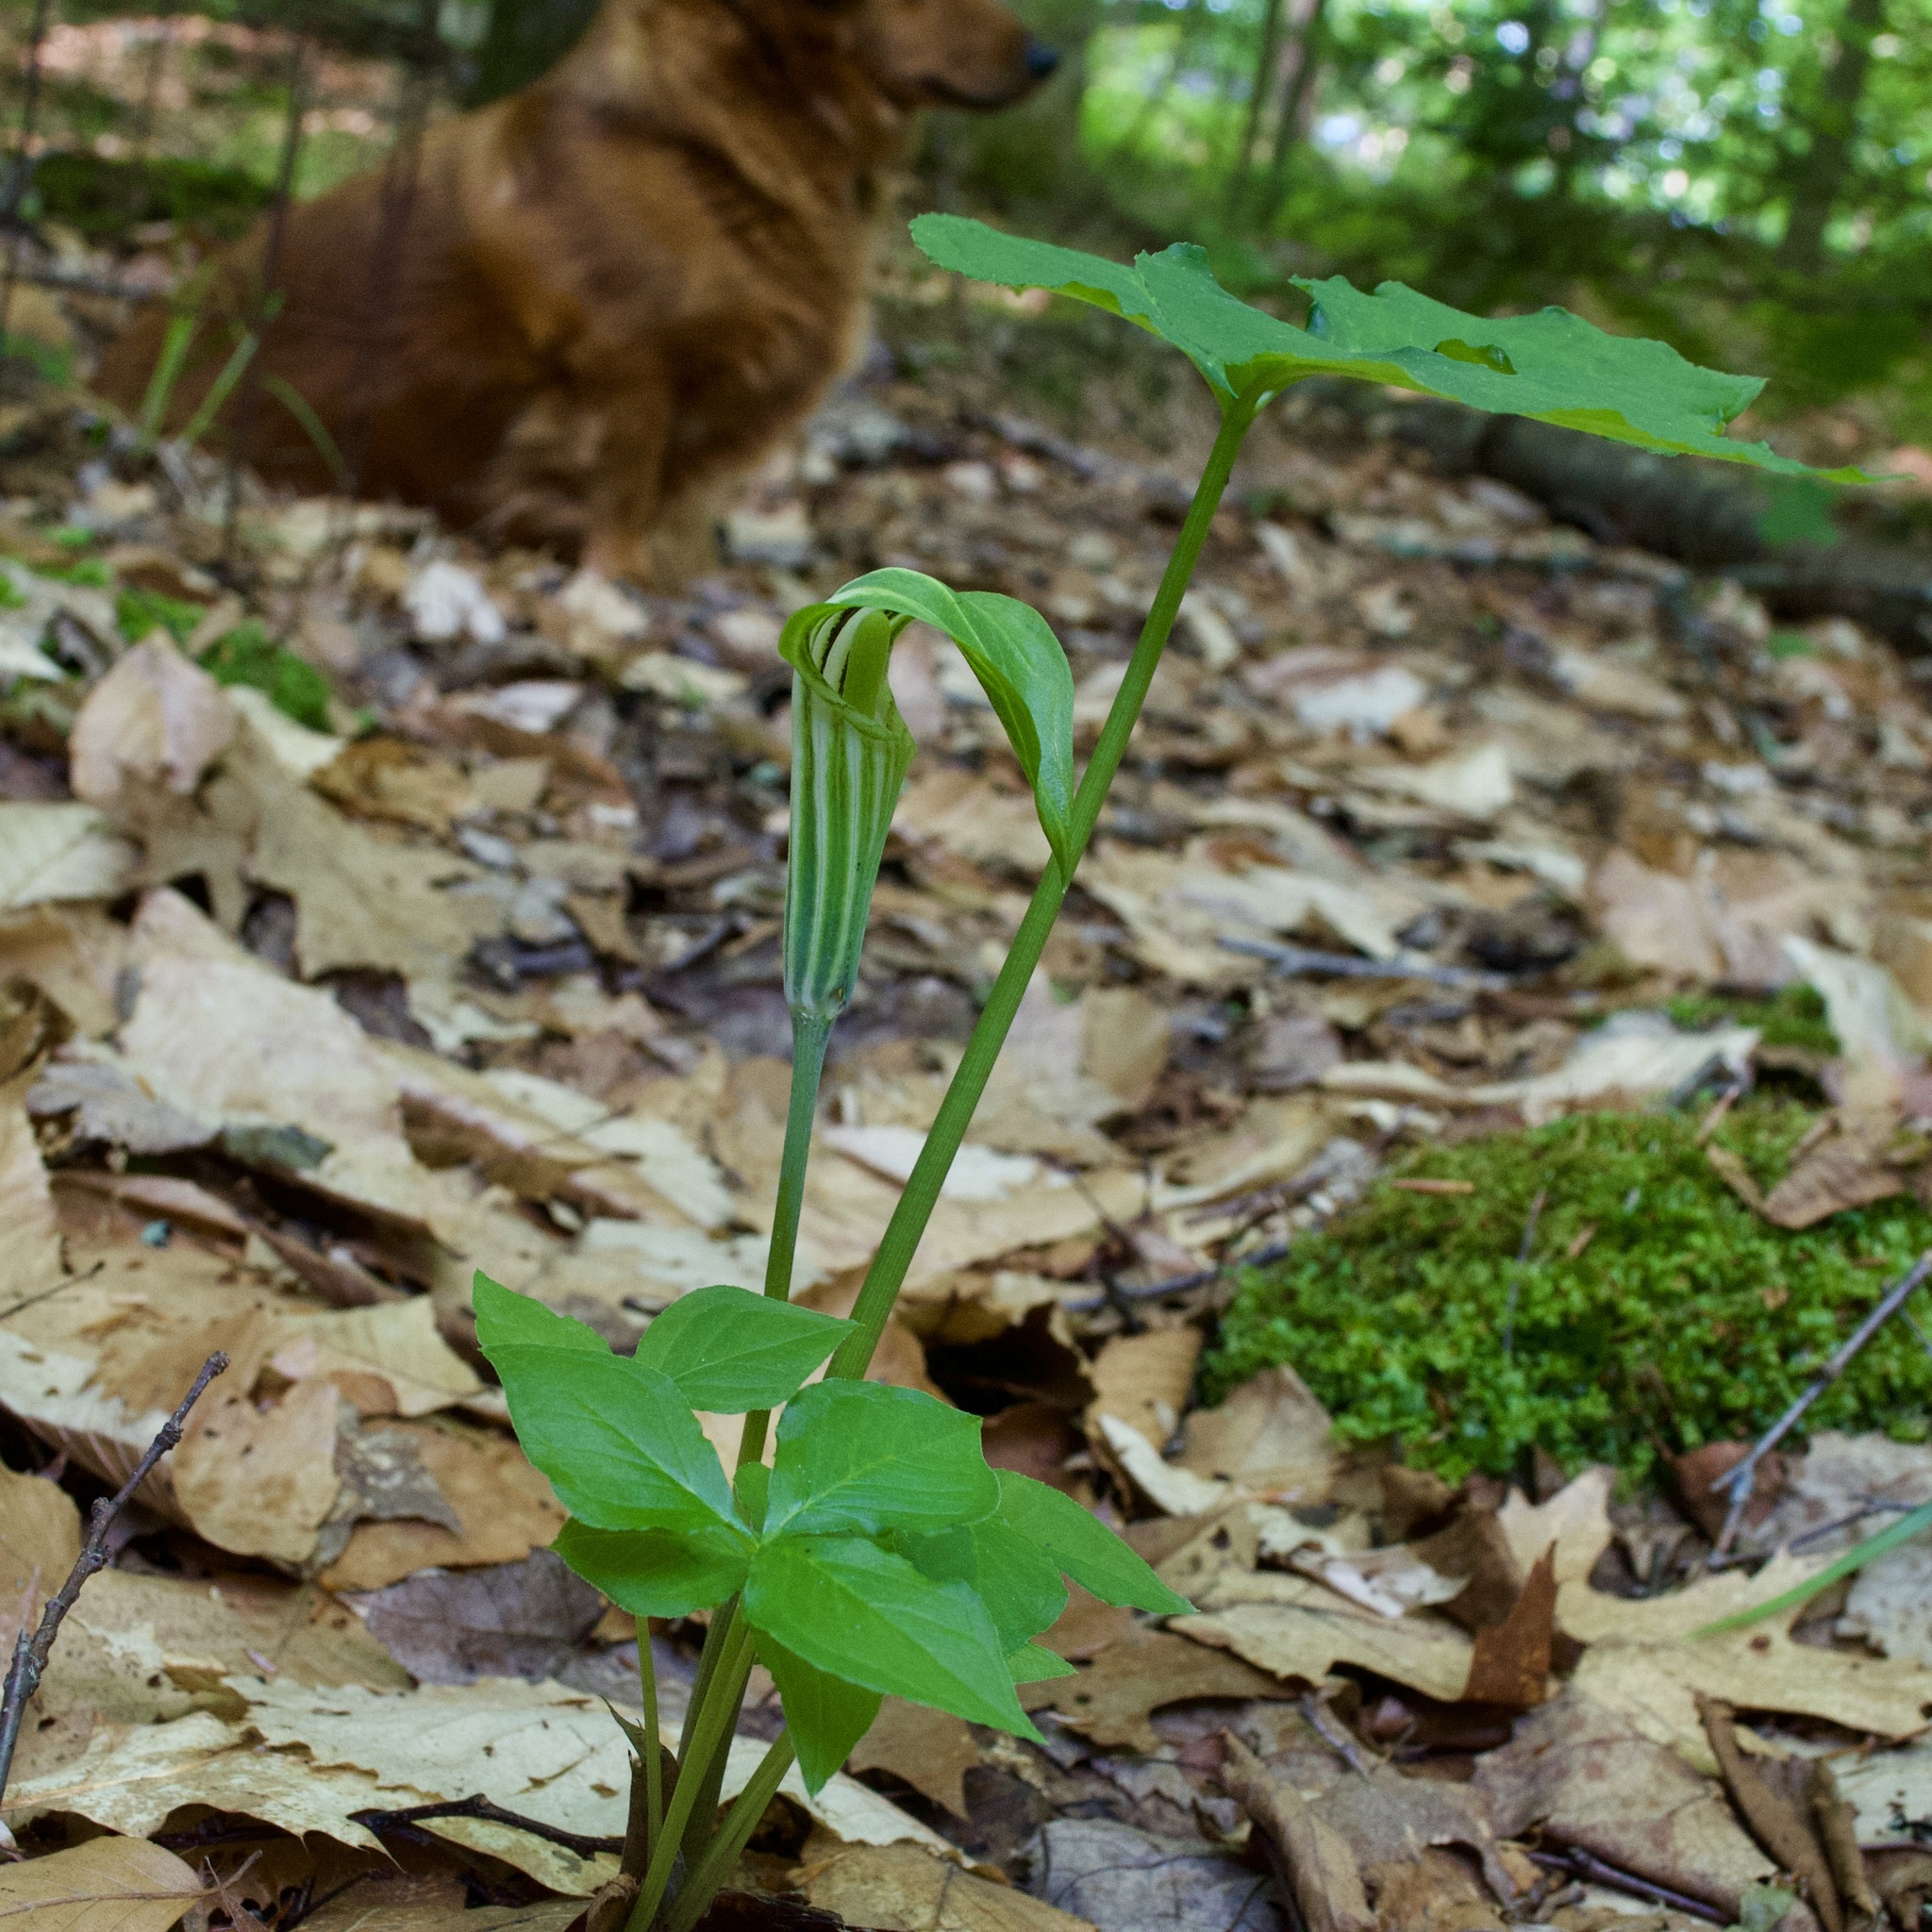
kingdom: Plantae
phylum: Tracheophyta
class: Liliopsida
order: Alismatales
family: Araceae
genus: Arisaema
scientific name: Arisaema stewardsonii
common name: Swamp jack-in-the-pulpit
